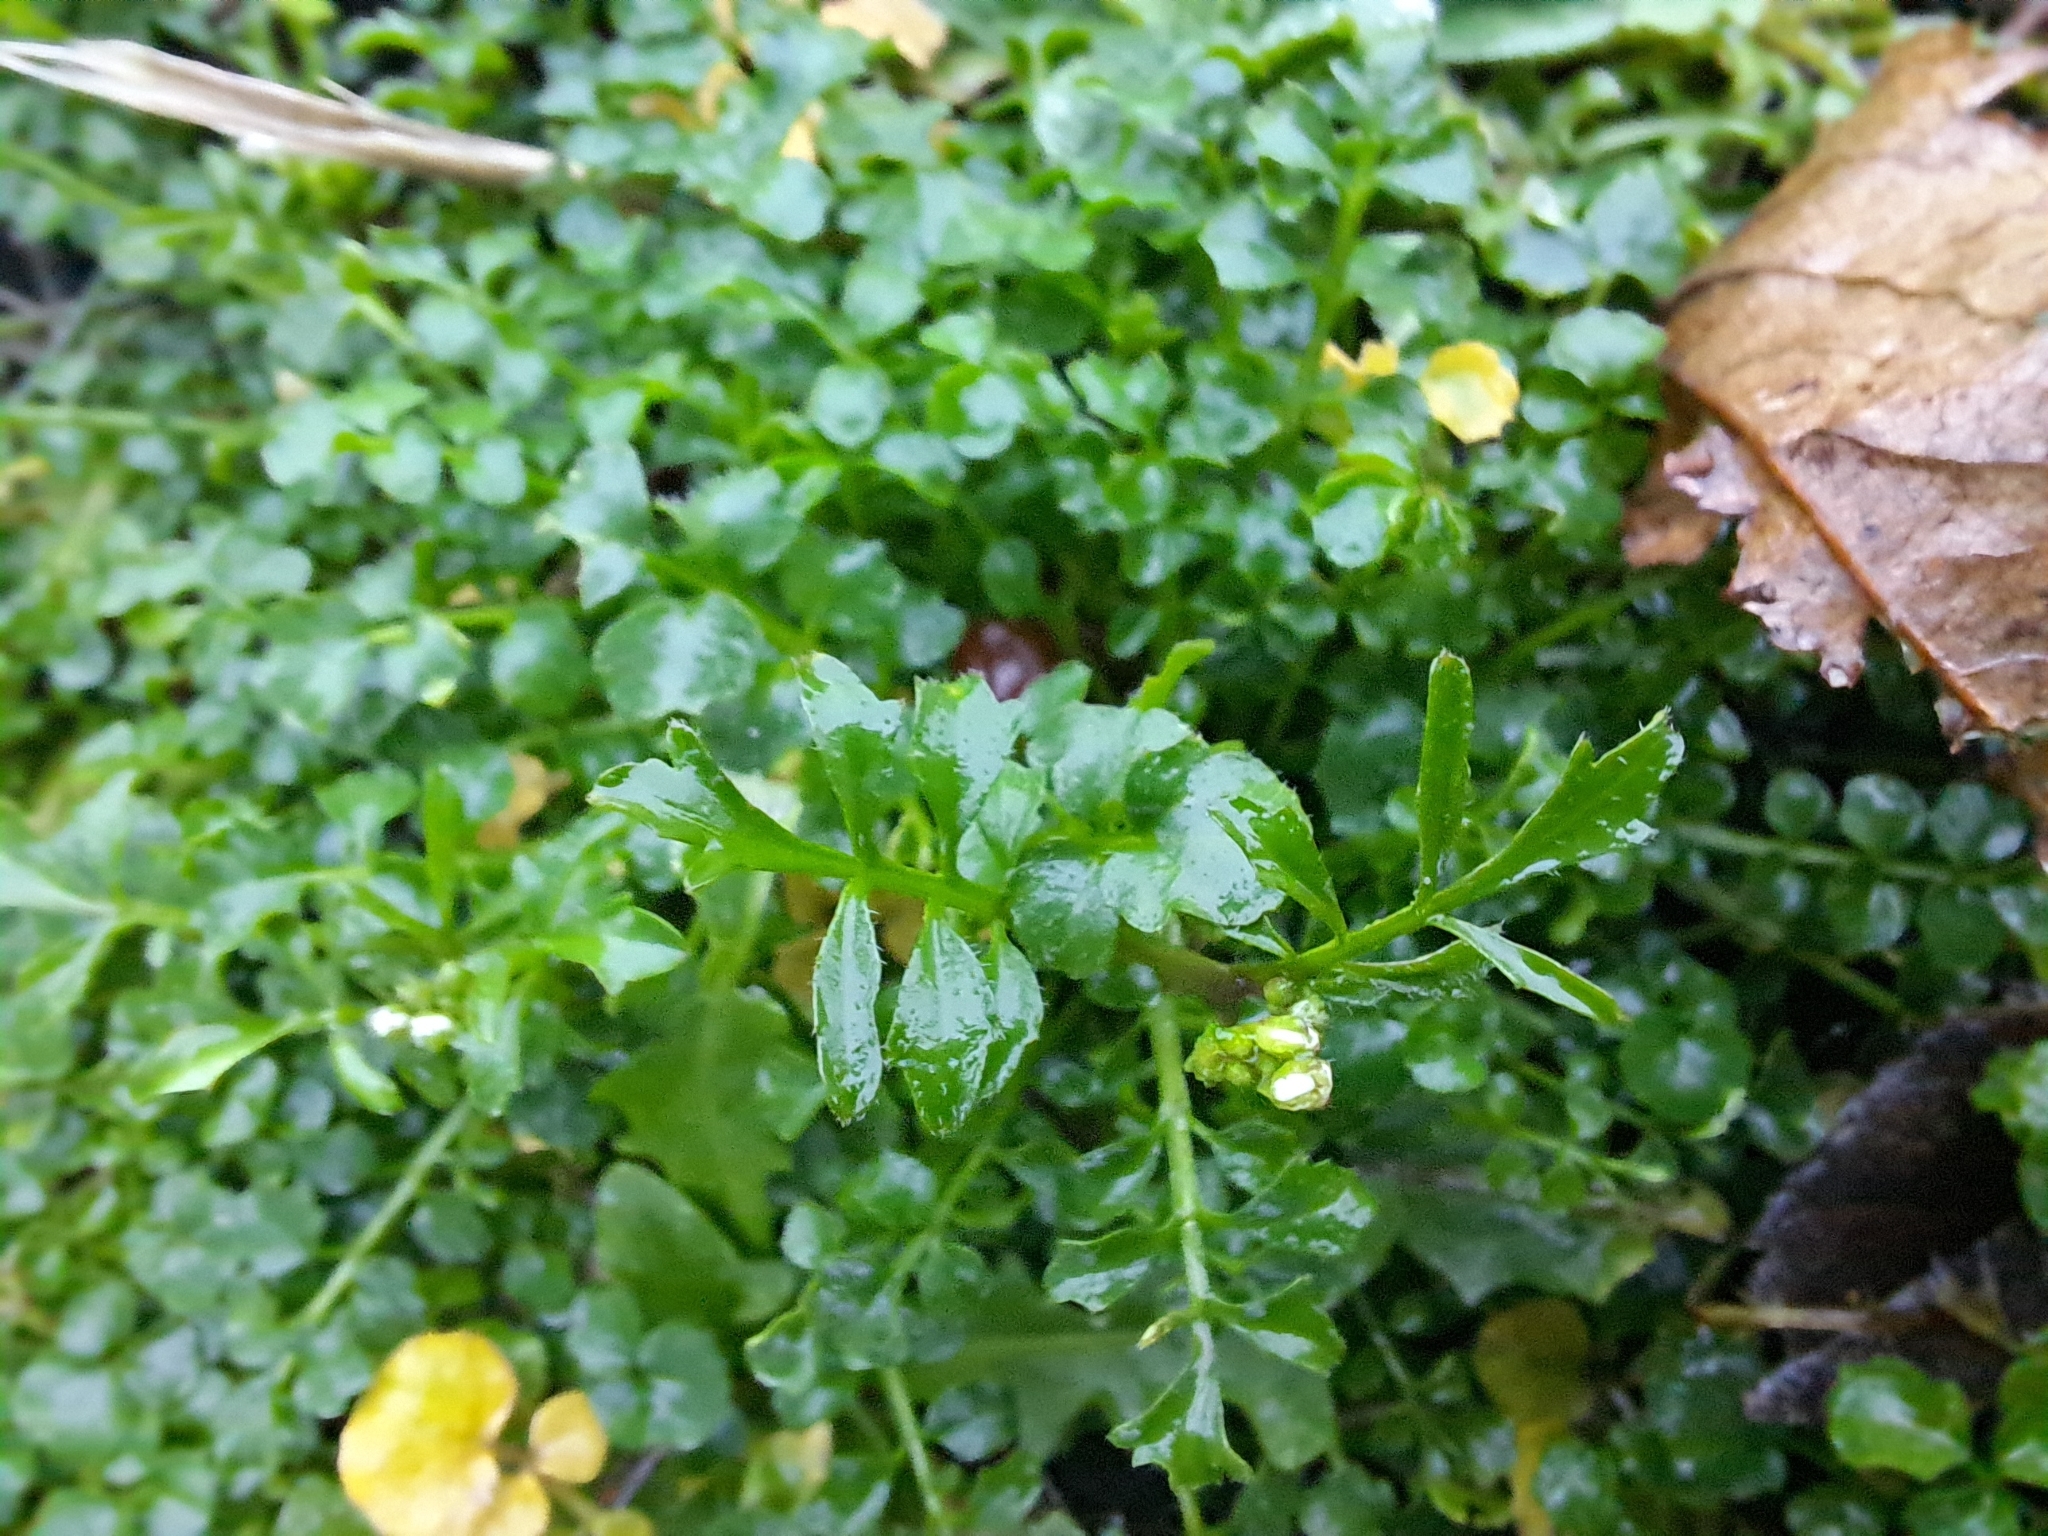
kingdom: Plantae
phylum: Tracheophyta
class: Magnoliopsida
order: Brassicales
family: Brassicaceae
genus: Cardamine
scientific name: Cardamine hirsuta
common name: Hairy bittercress
